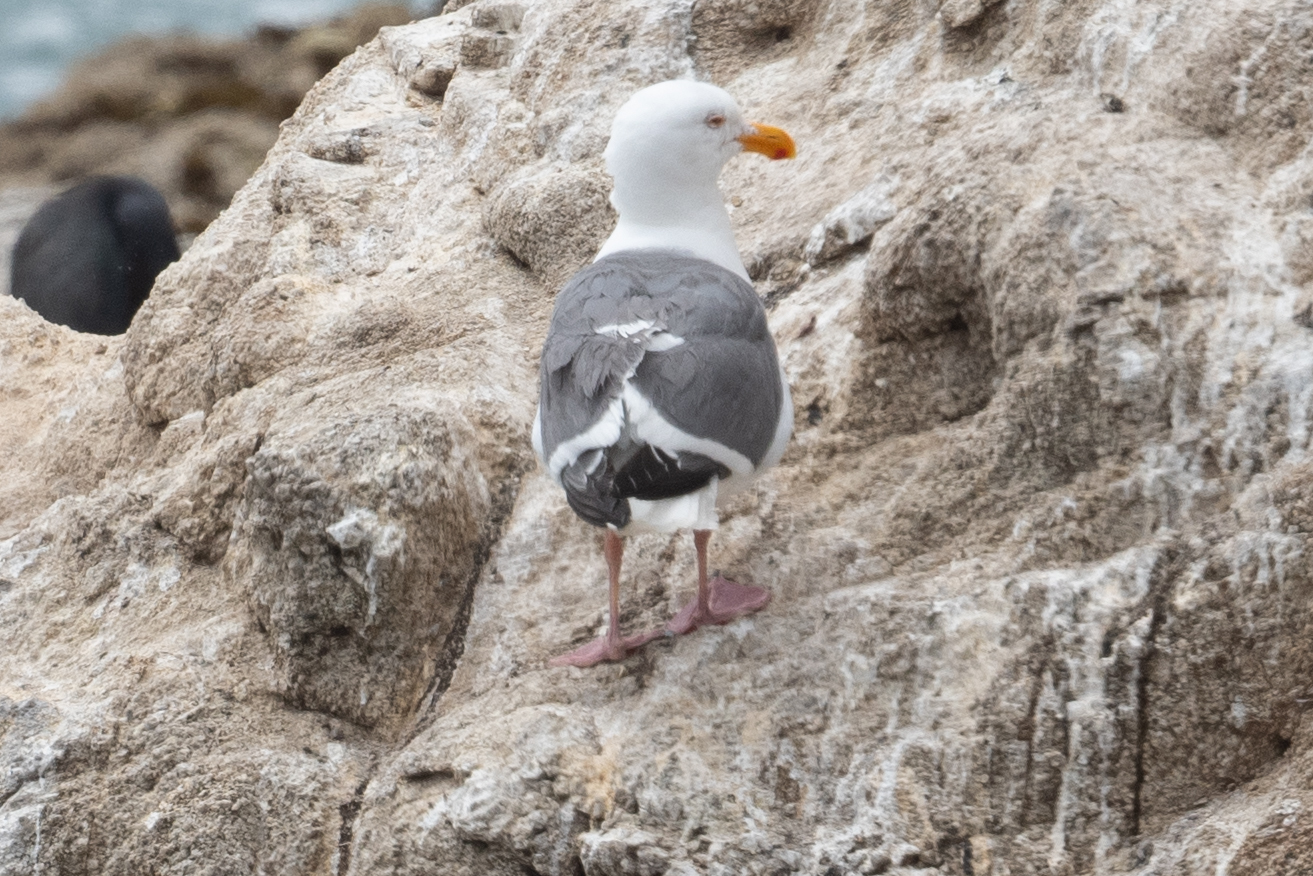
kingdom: Animalia
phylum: Chordata
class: Aves
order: Charadriiformes
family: Laridae
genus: Larus
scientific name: Larus occidentalis
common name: Western gull
